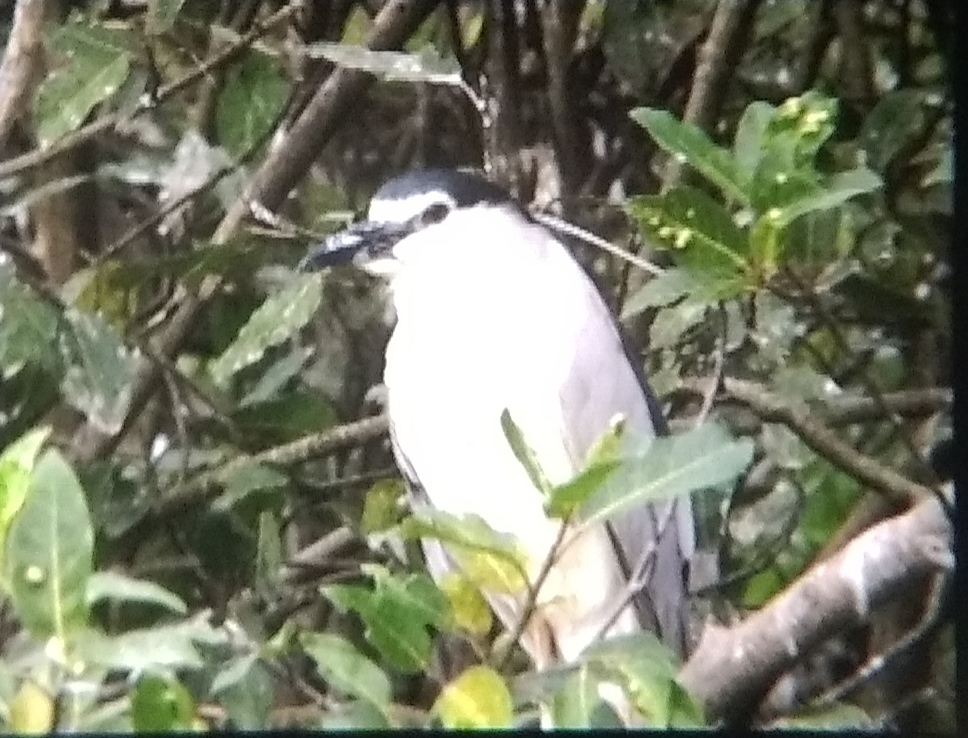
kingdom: Animalia
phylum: Chordata
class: Aves
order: Pelecaniformes
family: Ardeidae
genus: Nycticorax
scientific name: Nycticorax nycticorax
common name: Black-crowned night heron
